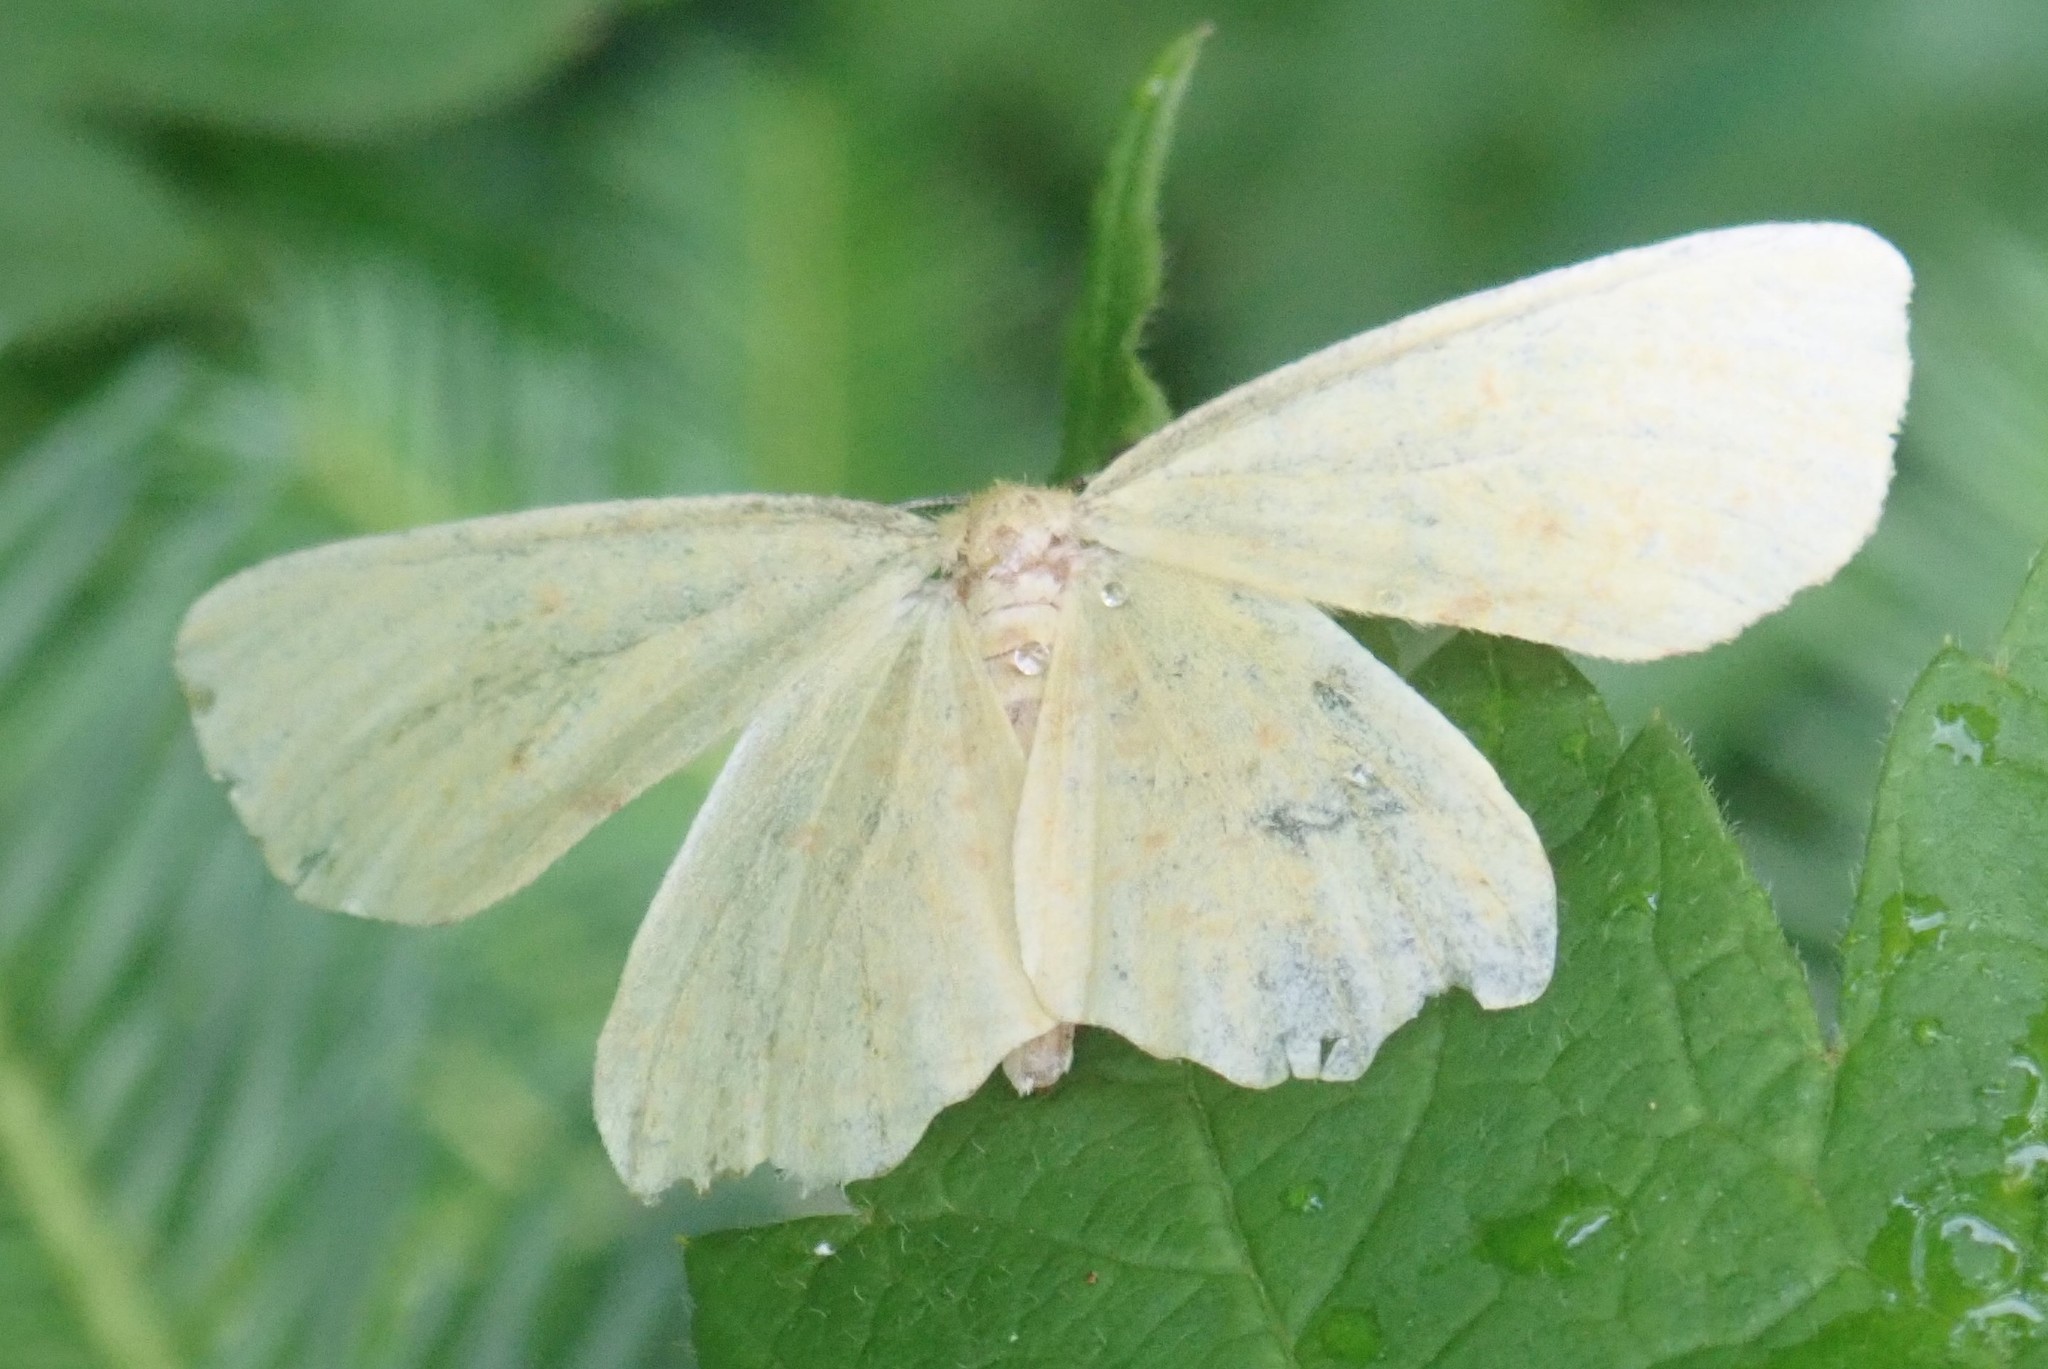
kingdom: Animalia
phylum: Arthropoda
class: Insecta
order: Lepidoptera
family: Geometridae
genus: Xanthotype
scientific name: Xanthotype
